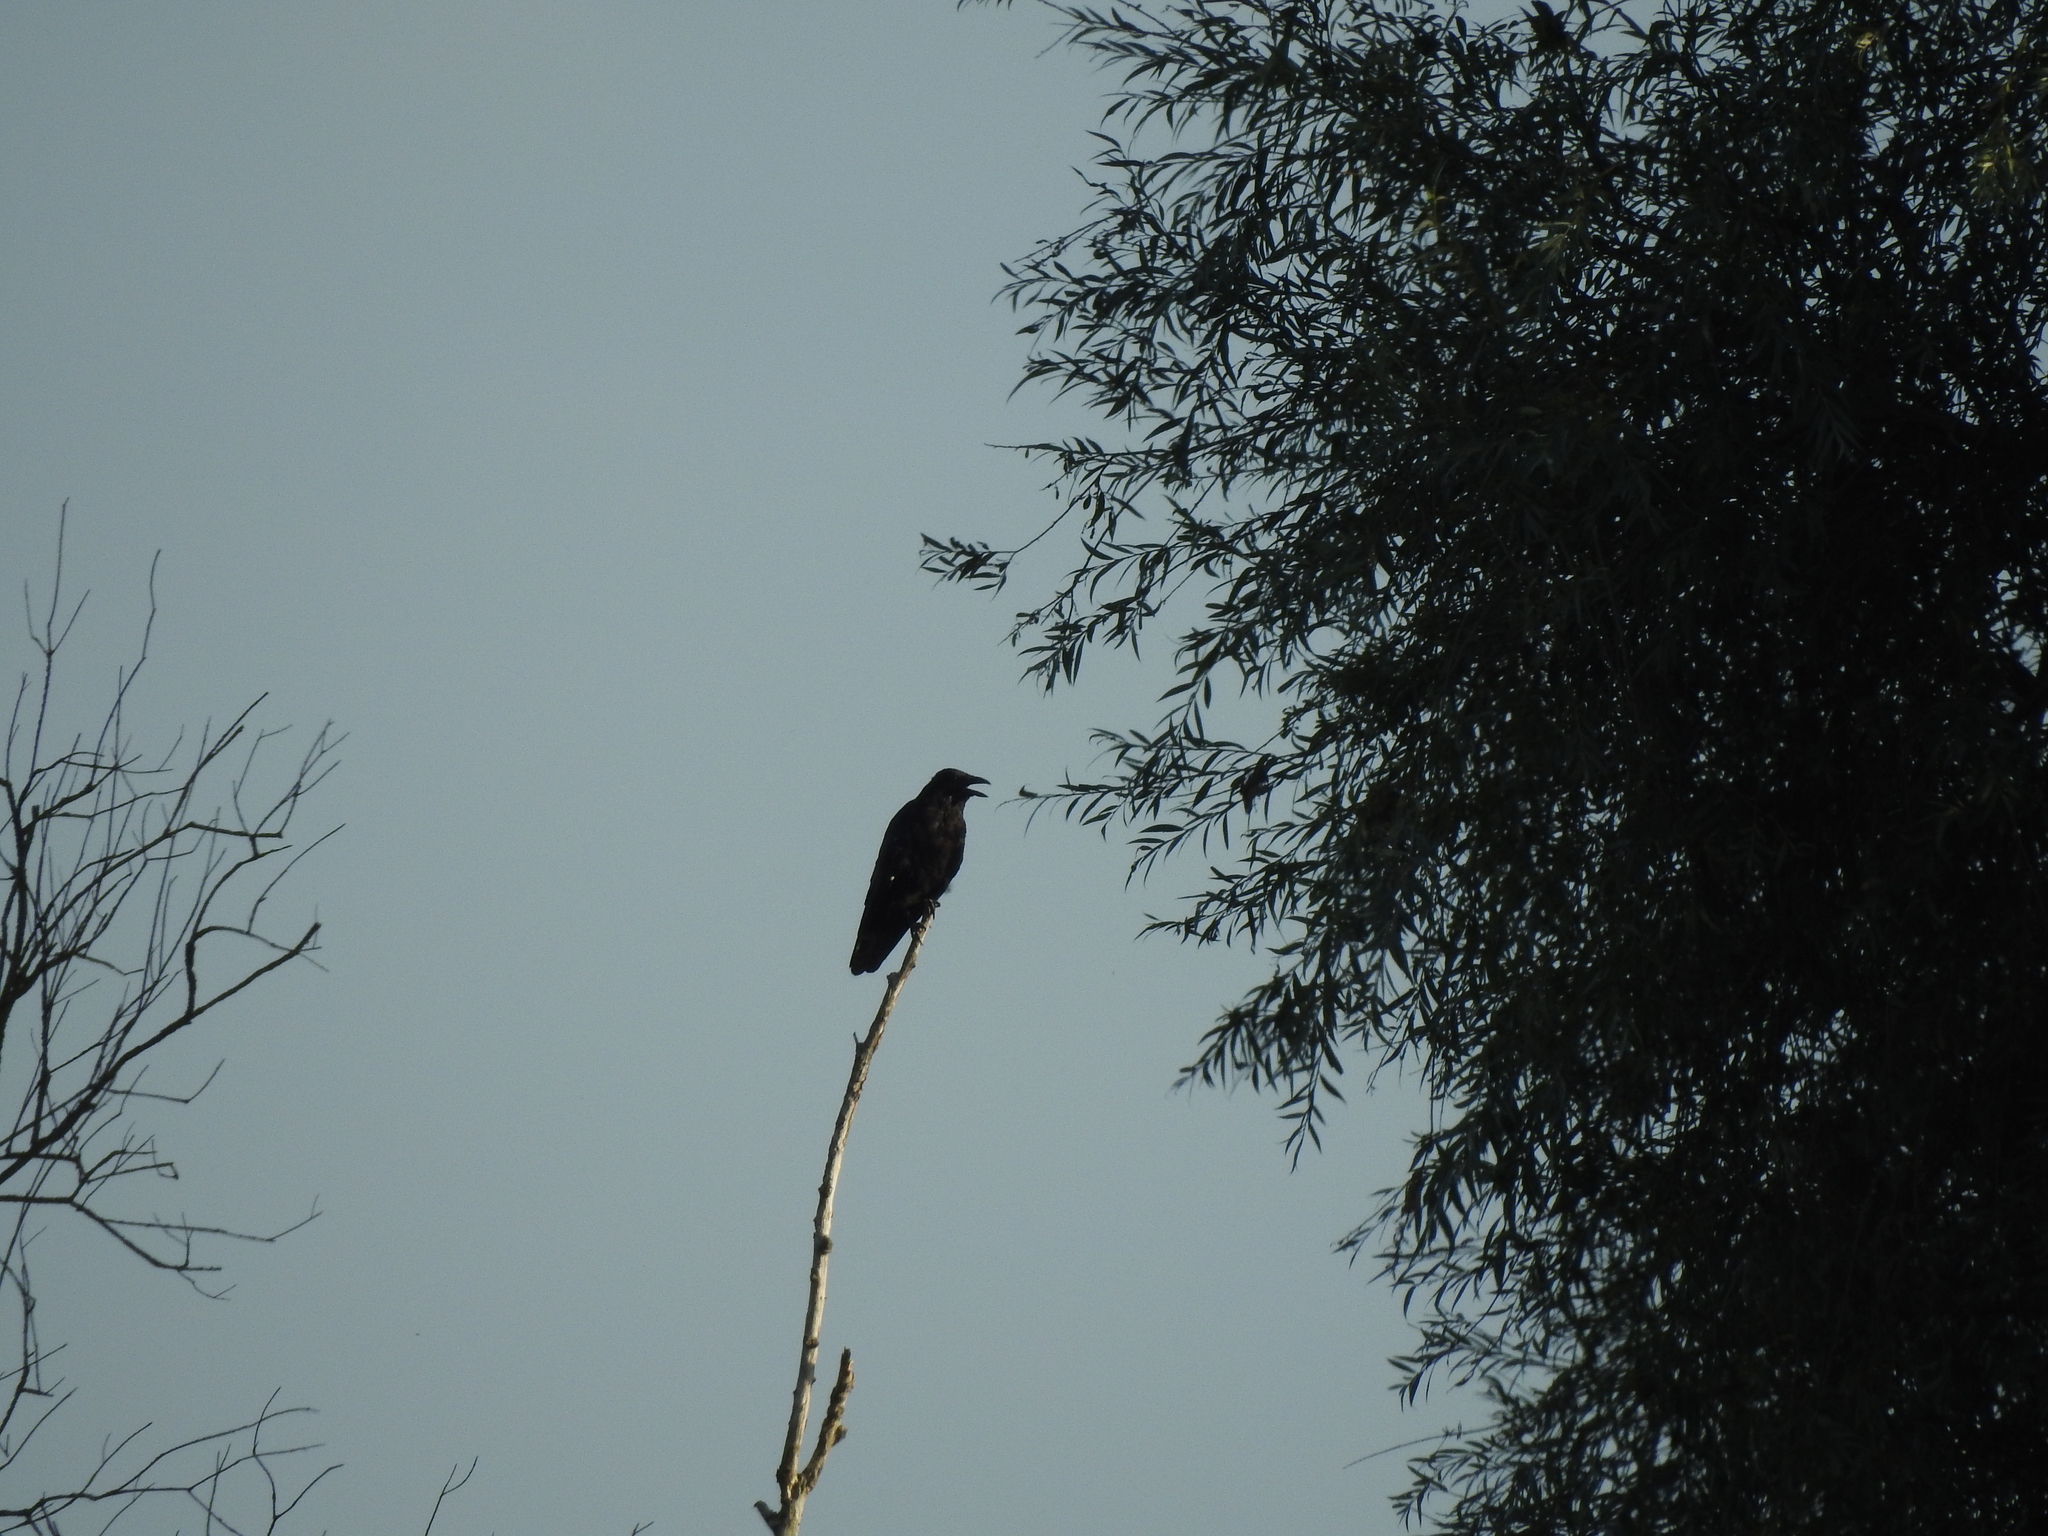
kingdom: Animalia
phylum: Chordata
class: Aves
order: Passeriformes
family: Corvidae
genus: Corvus
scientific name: Corvus corone
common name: Carrion crow
